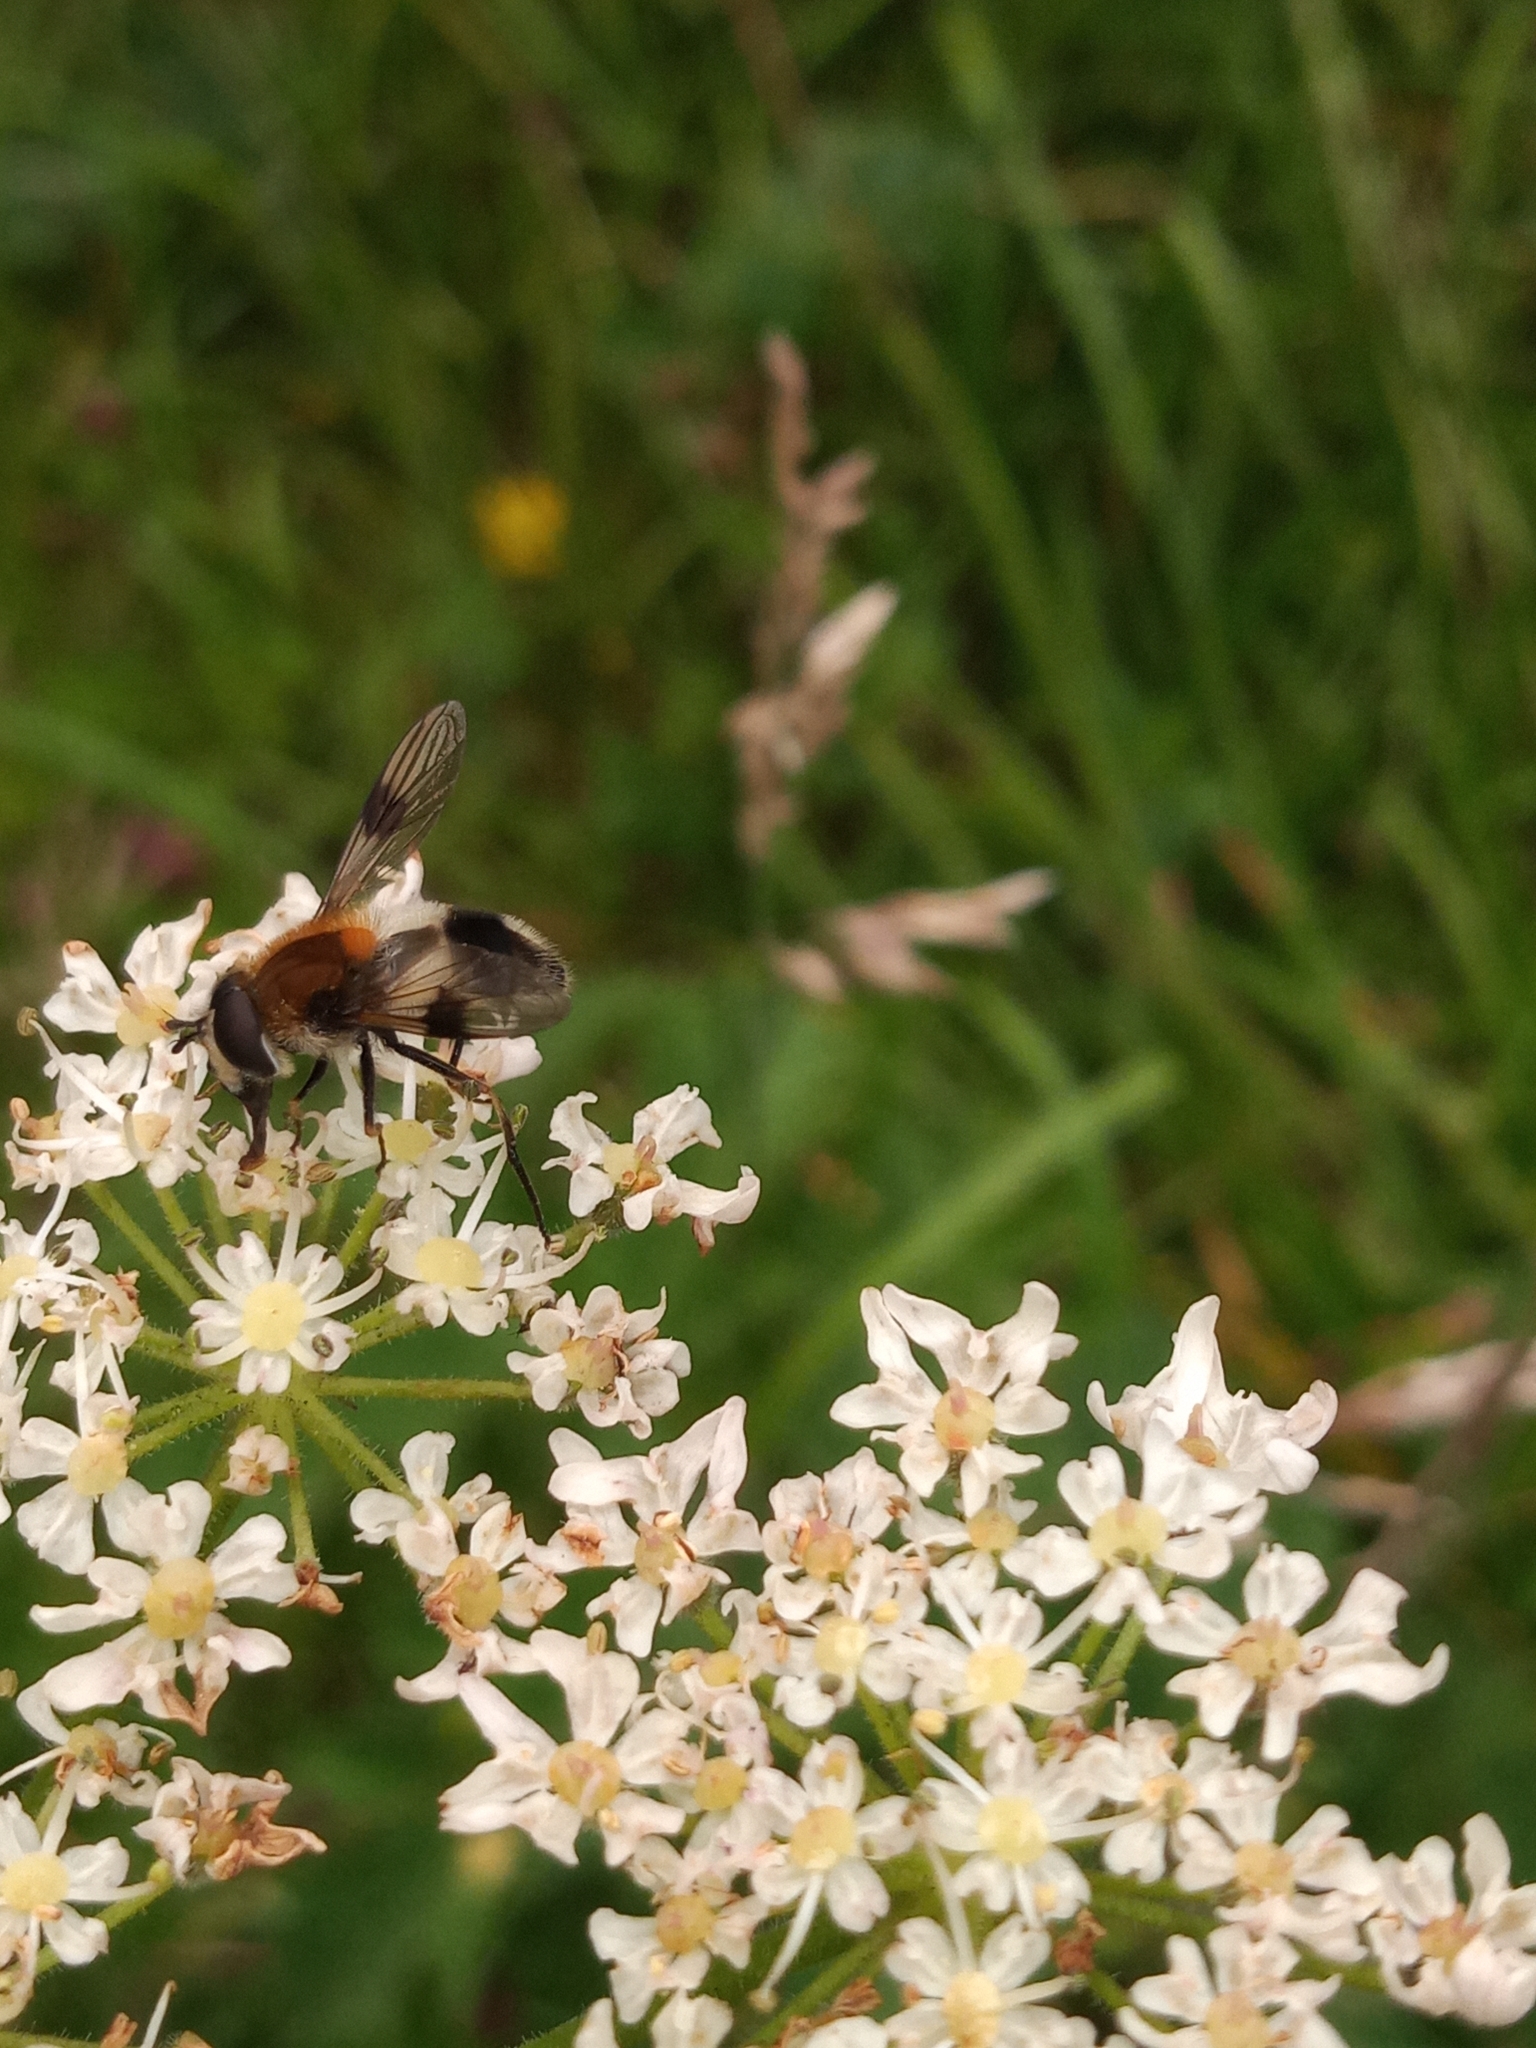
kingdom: Animalia
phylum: Arthropoda
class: Insecta
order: Diptera
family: Syrphidae
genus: Leucozona
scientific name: Leucozona lucorum
